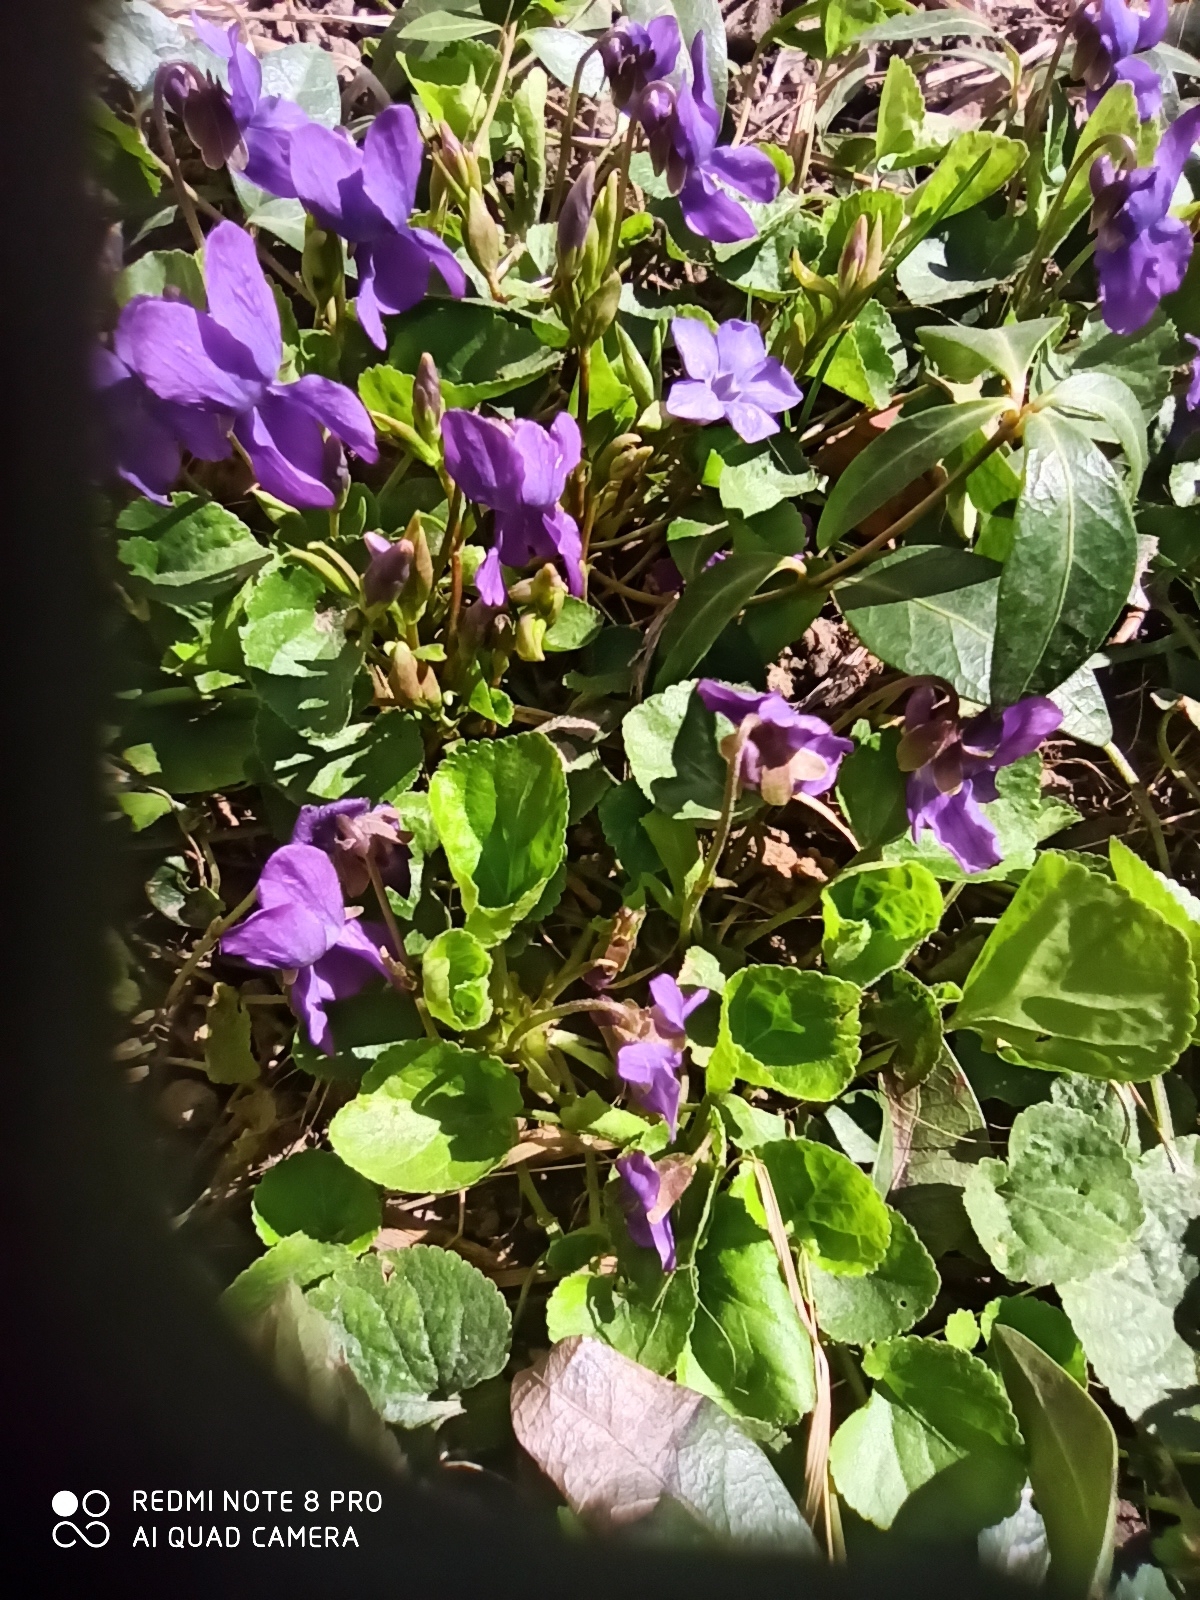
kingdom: Plantae
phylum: Tracheophyta
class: Magnoliopsida
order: Malpighiales
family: Violaceae
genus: Viola
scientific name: Viola odorata
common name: Sweet violet
